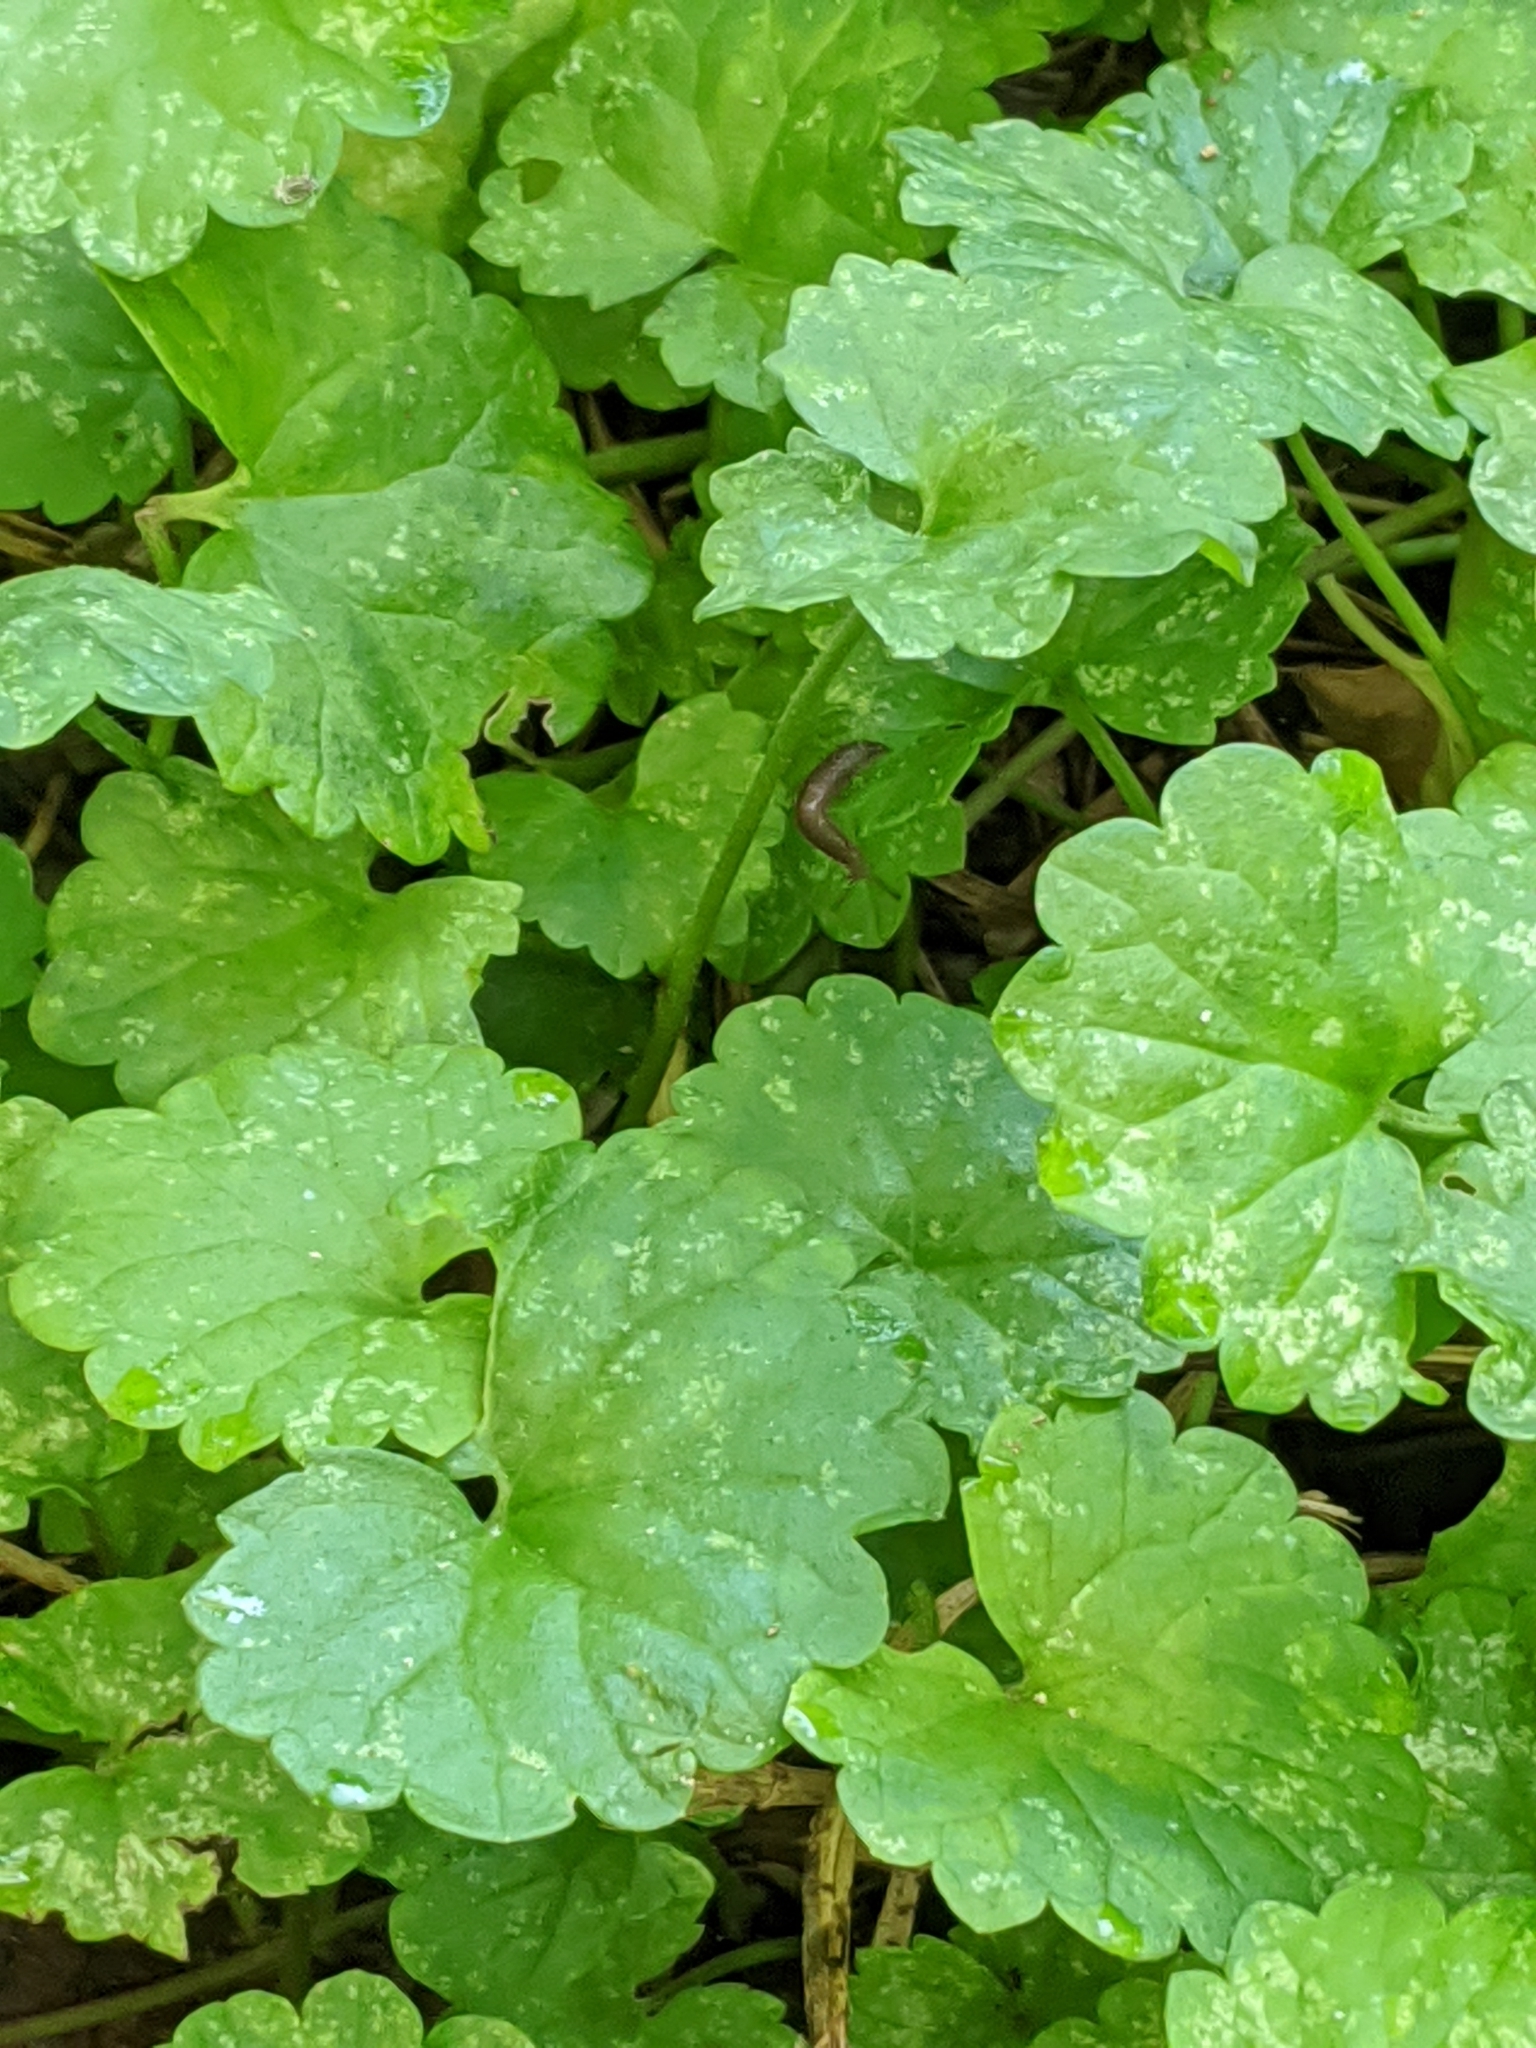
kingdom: Plantae
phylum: Tracheophyta
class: Magnoliopsida
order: Lamiales
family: Lamiaceae
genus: Glechoma
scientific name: Glechoma hederacea
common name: Ground ivy
